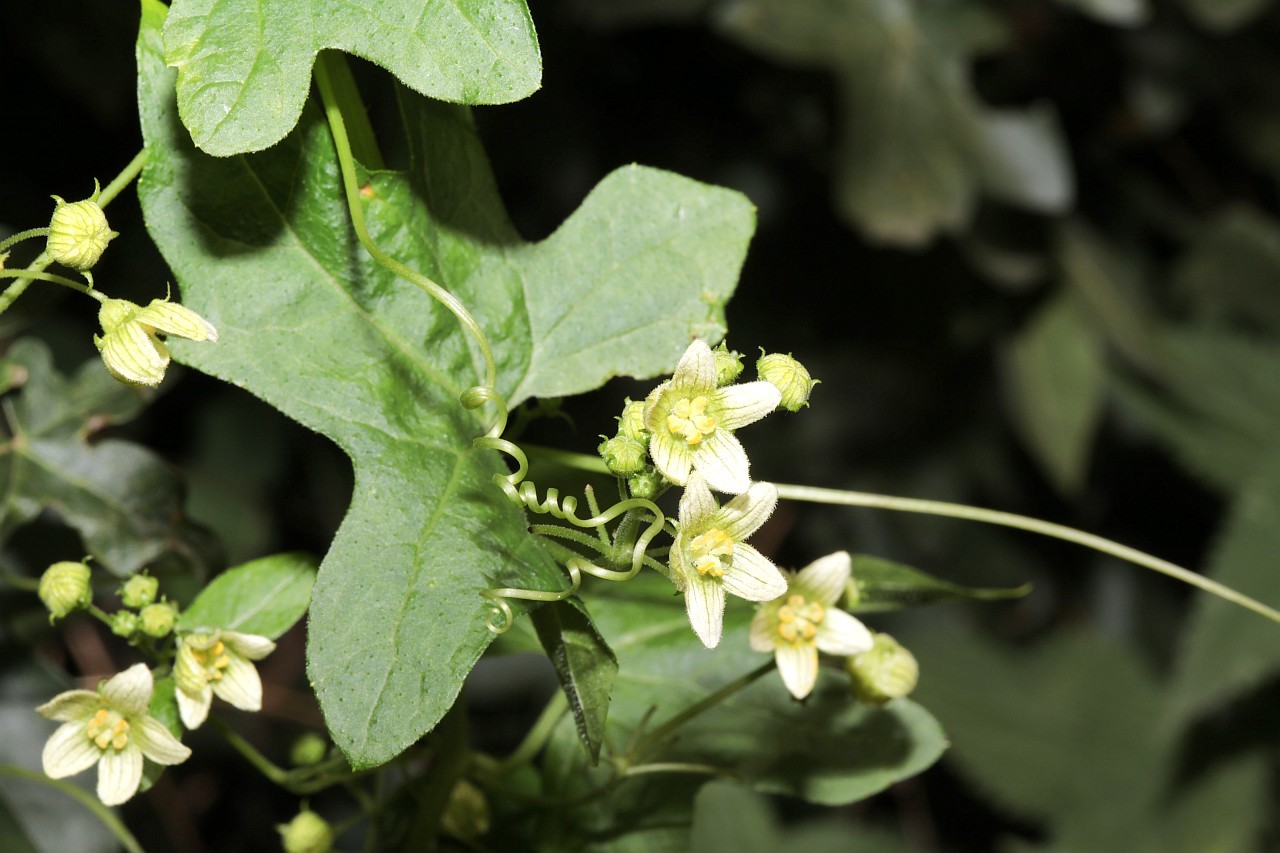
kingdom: Plantae
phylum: Tracheophyta
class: Magnoliopsida
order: Cucurbitales
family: Cucurbitaceae
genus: Bryonia
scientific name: Bryonia cretica
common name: Cretan bryony
